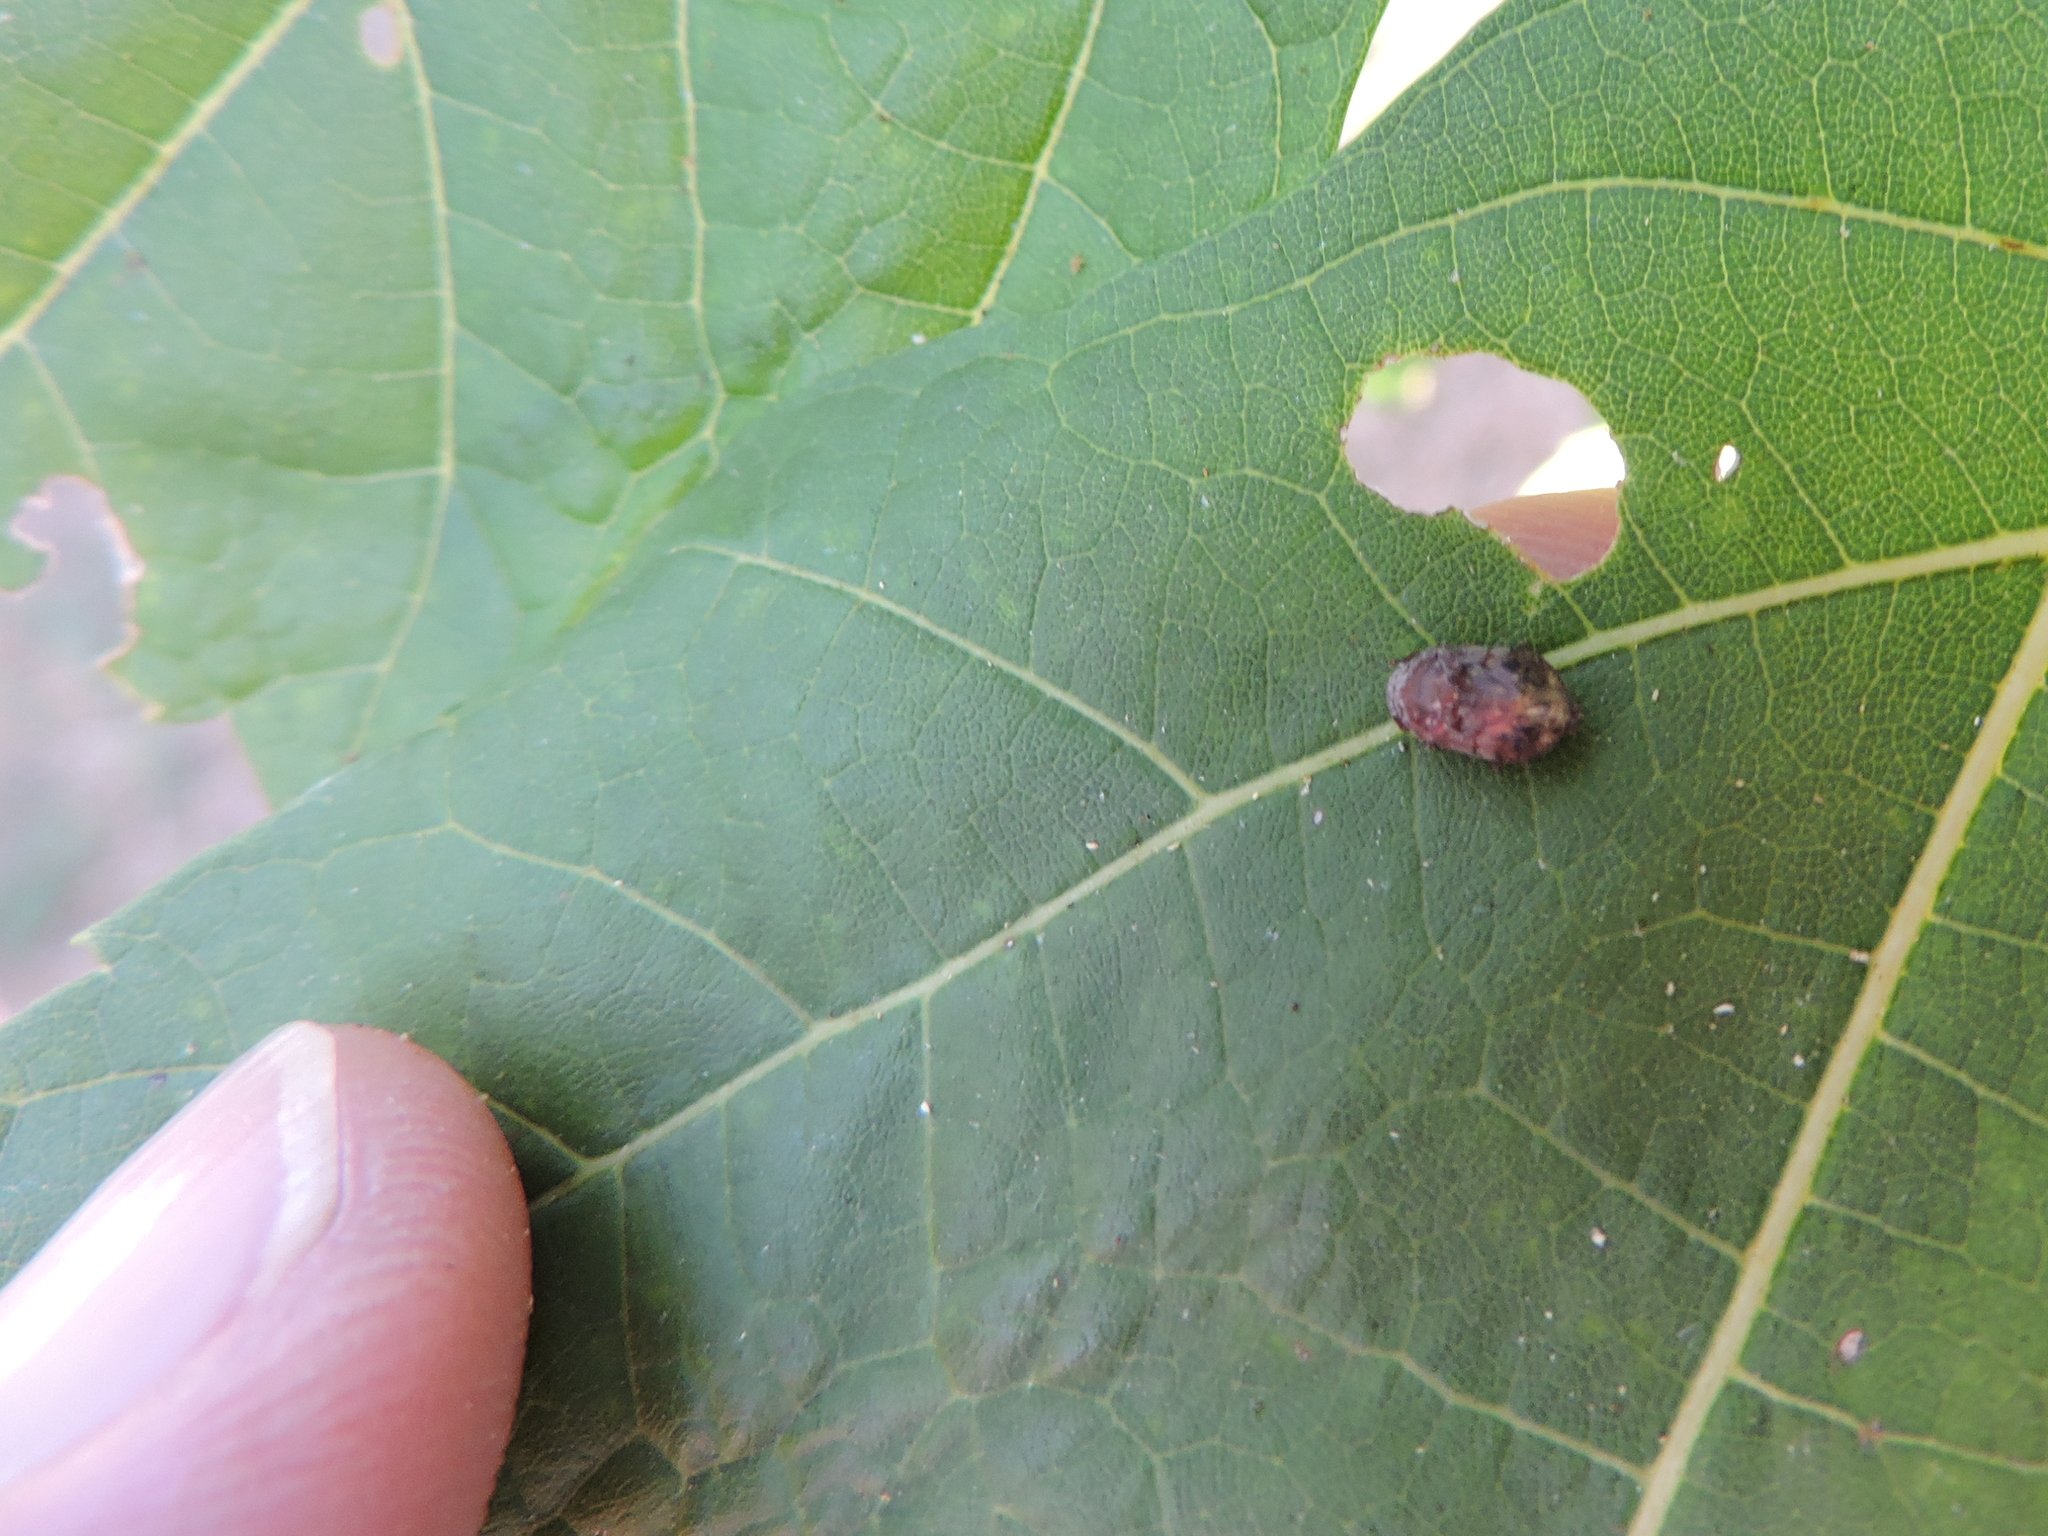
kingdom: Animalia
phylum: Arthropoda
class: Insecta
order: Hemiptera
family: Cicadellidae
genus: Penthimia
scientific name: Penthimia americana
